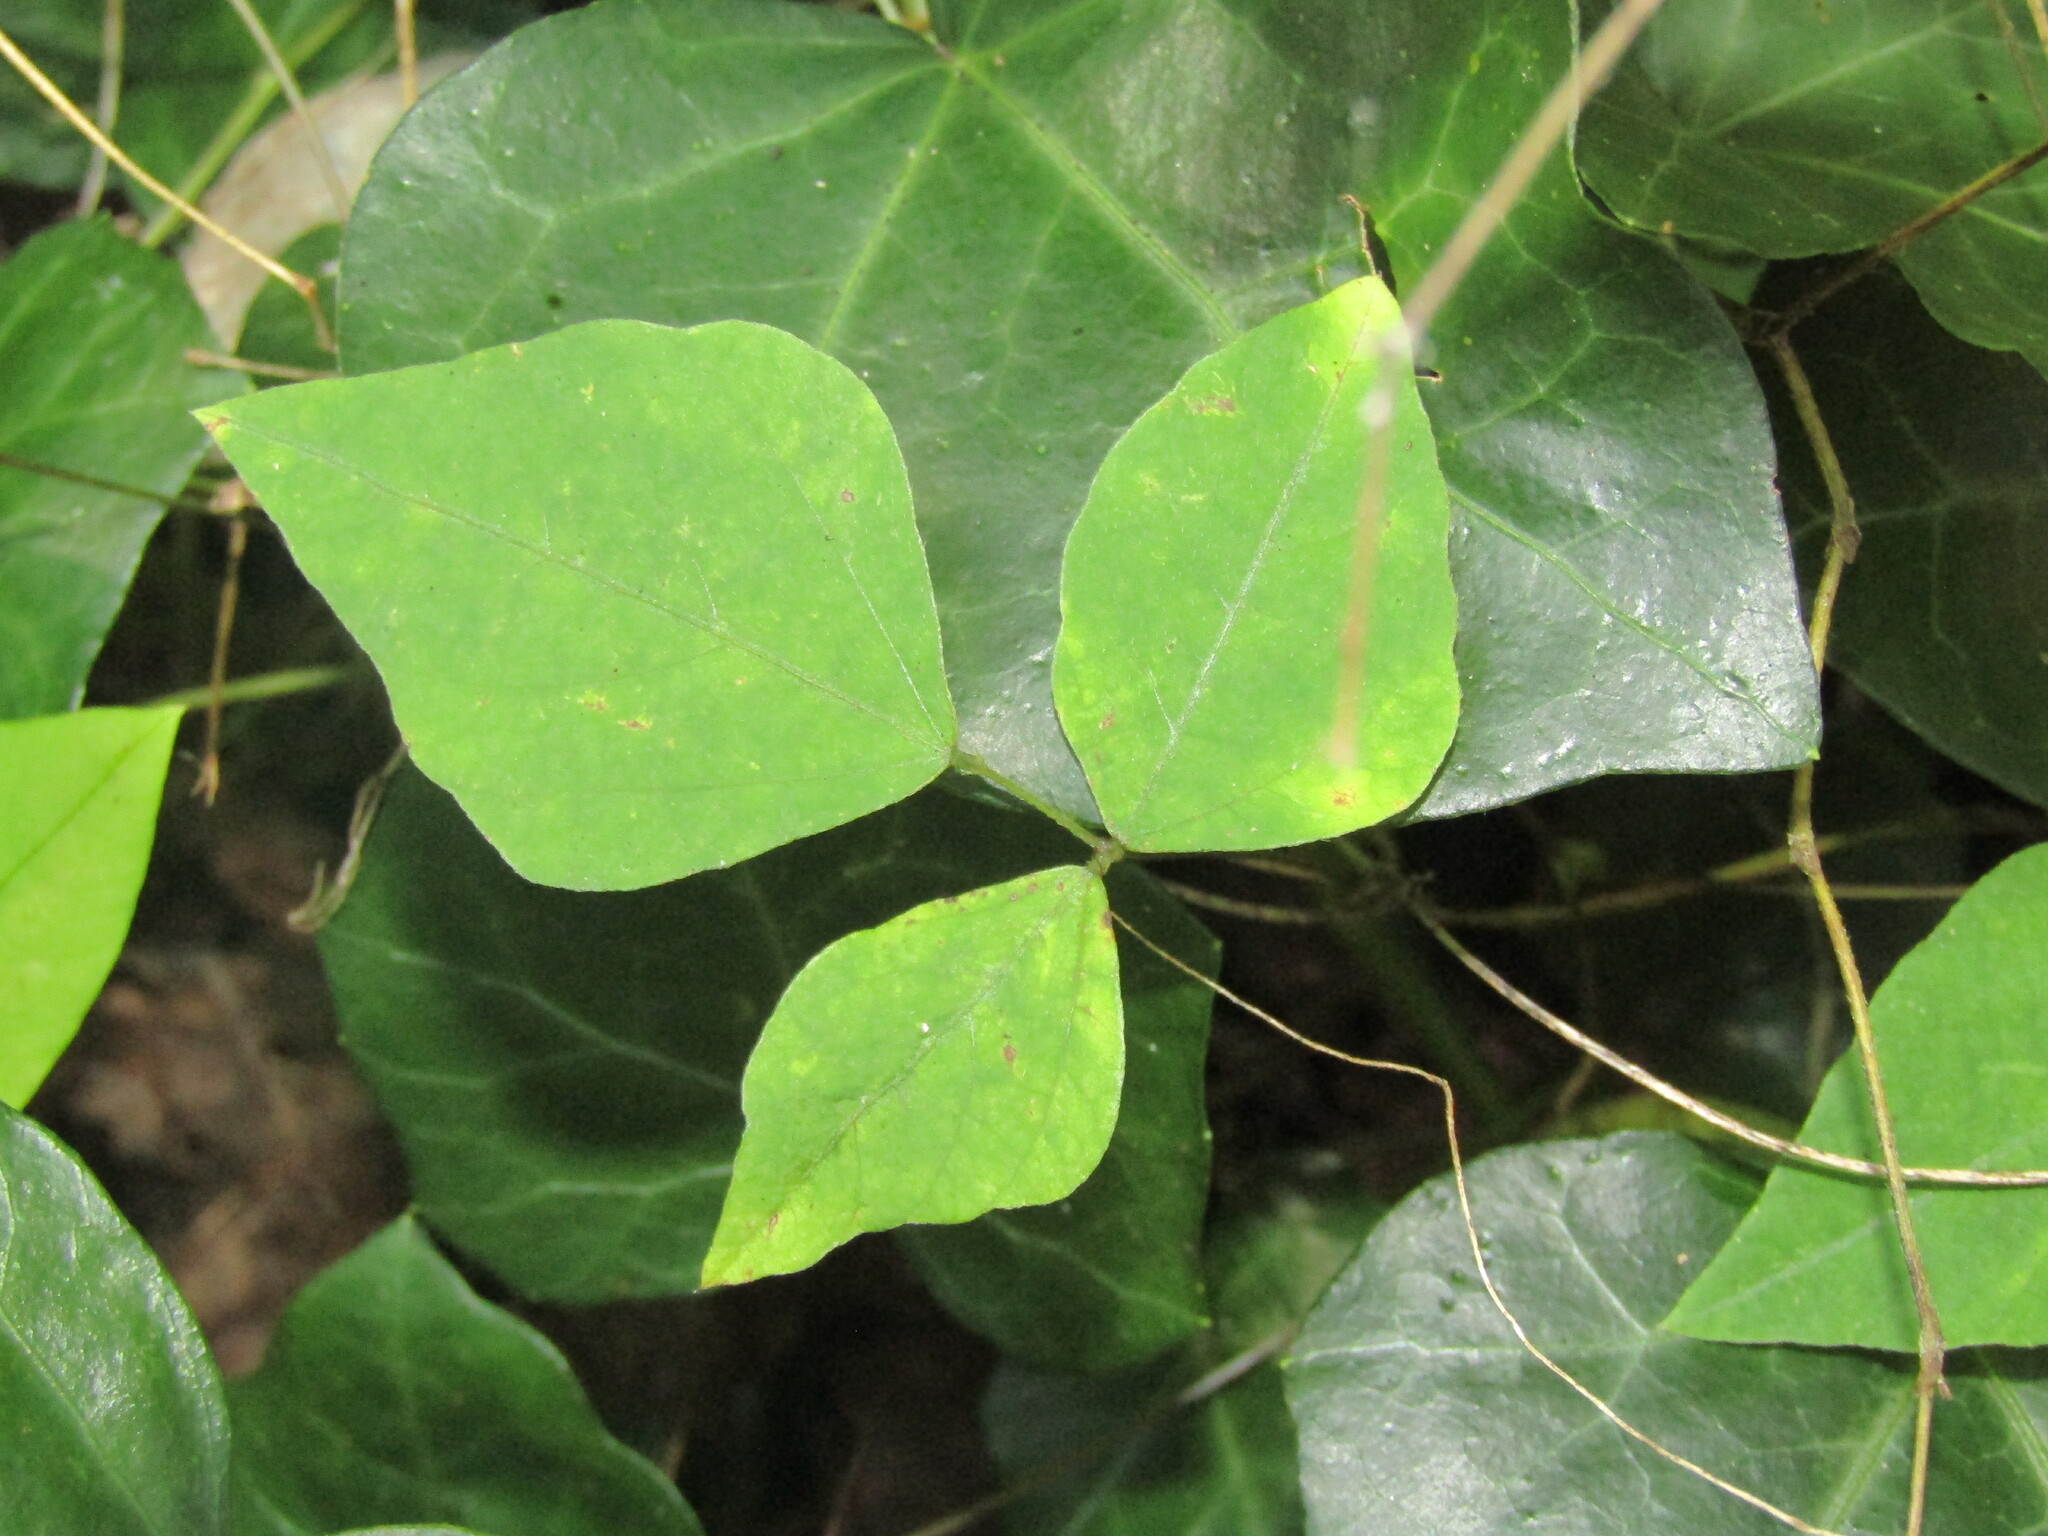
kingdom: Plantae
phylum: Tracheophyta
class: Magnoliopsida
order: Fabales
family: Fabaceae
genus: Amphicarpaea
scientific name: Amphicarpaea bracteata
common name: American hog peanut
